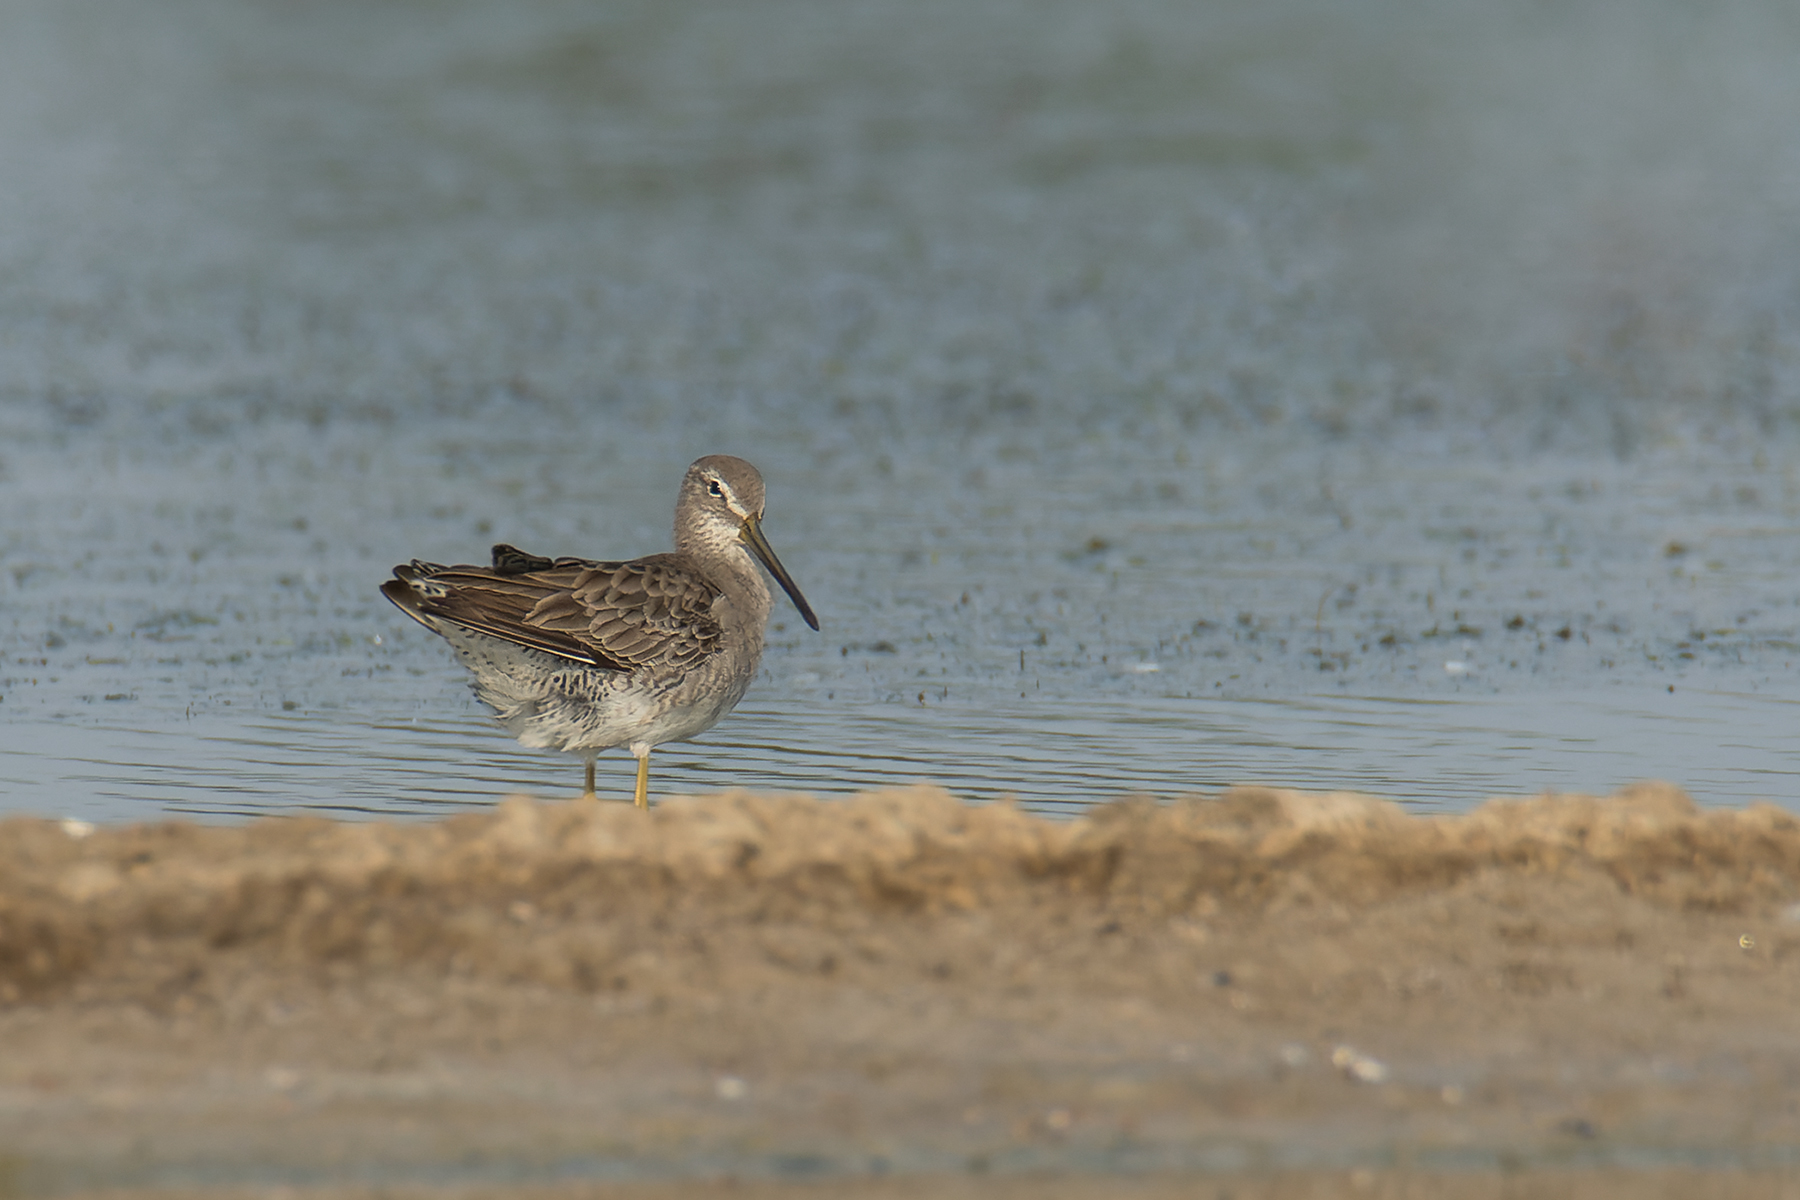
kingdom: Animalia
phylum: Chordata
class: Aves
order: Charadriiformes
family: Scolopacidae
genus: Limnodromus
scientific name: Limnodromus scolopaceus
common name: Long-billed dowitcher
